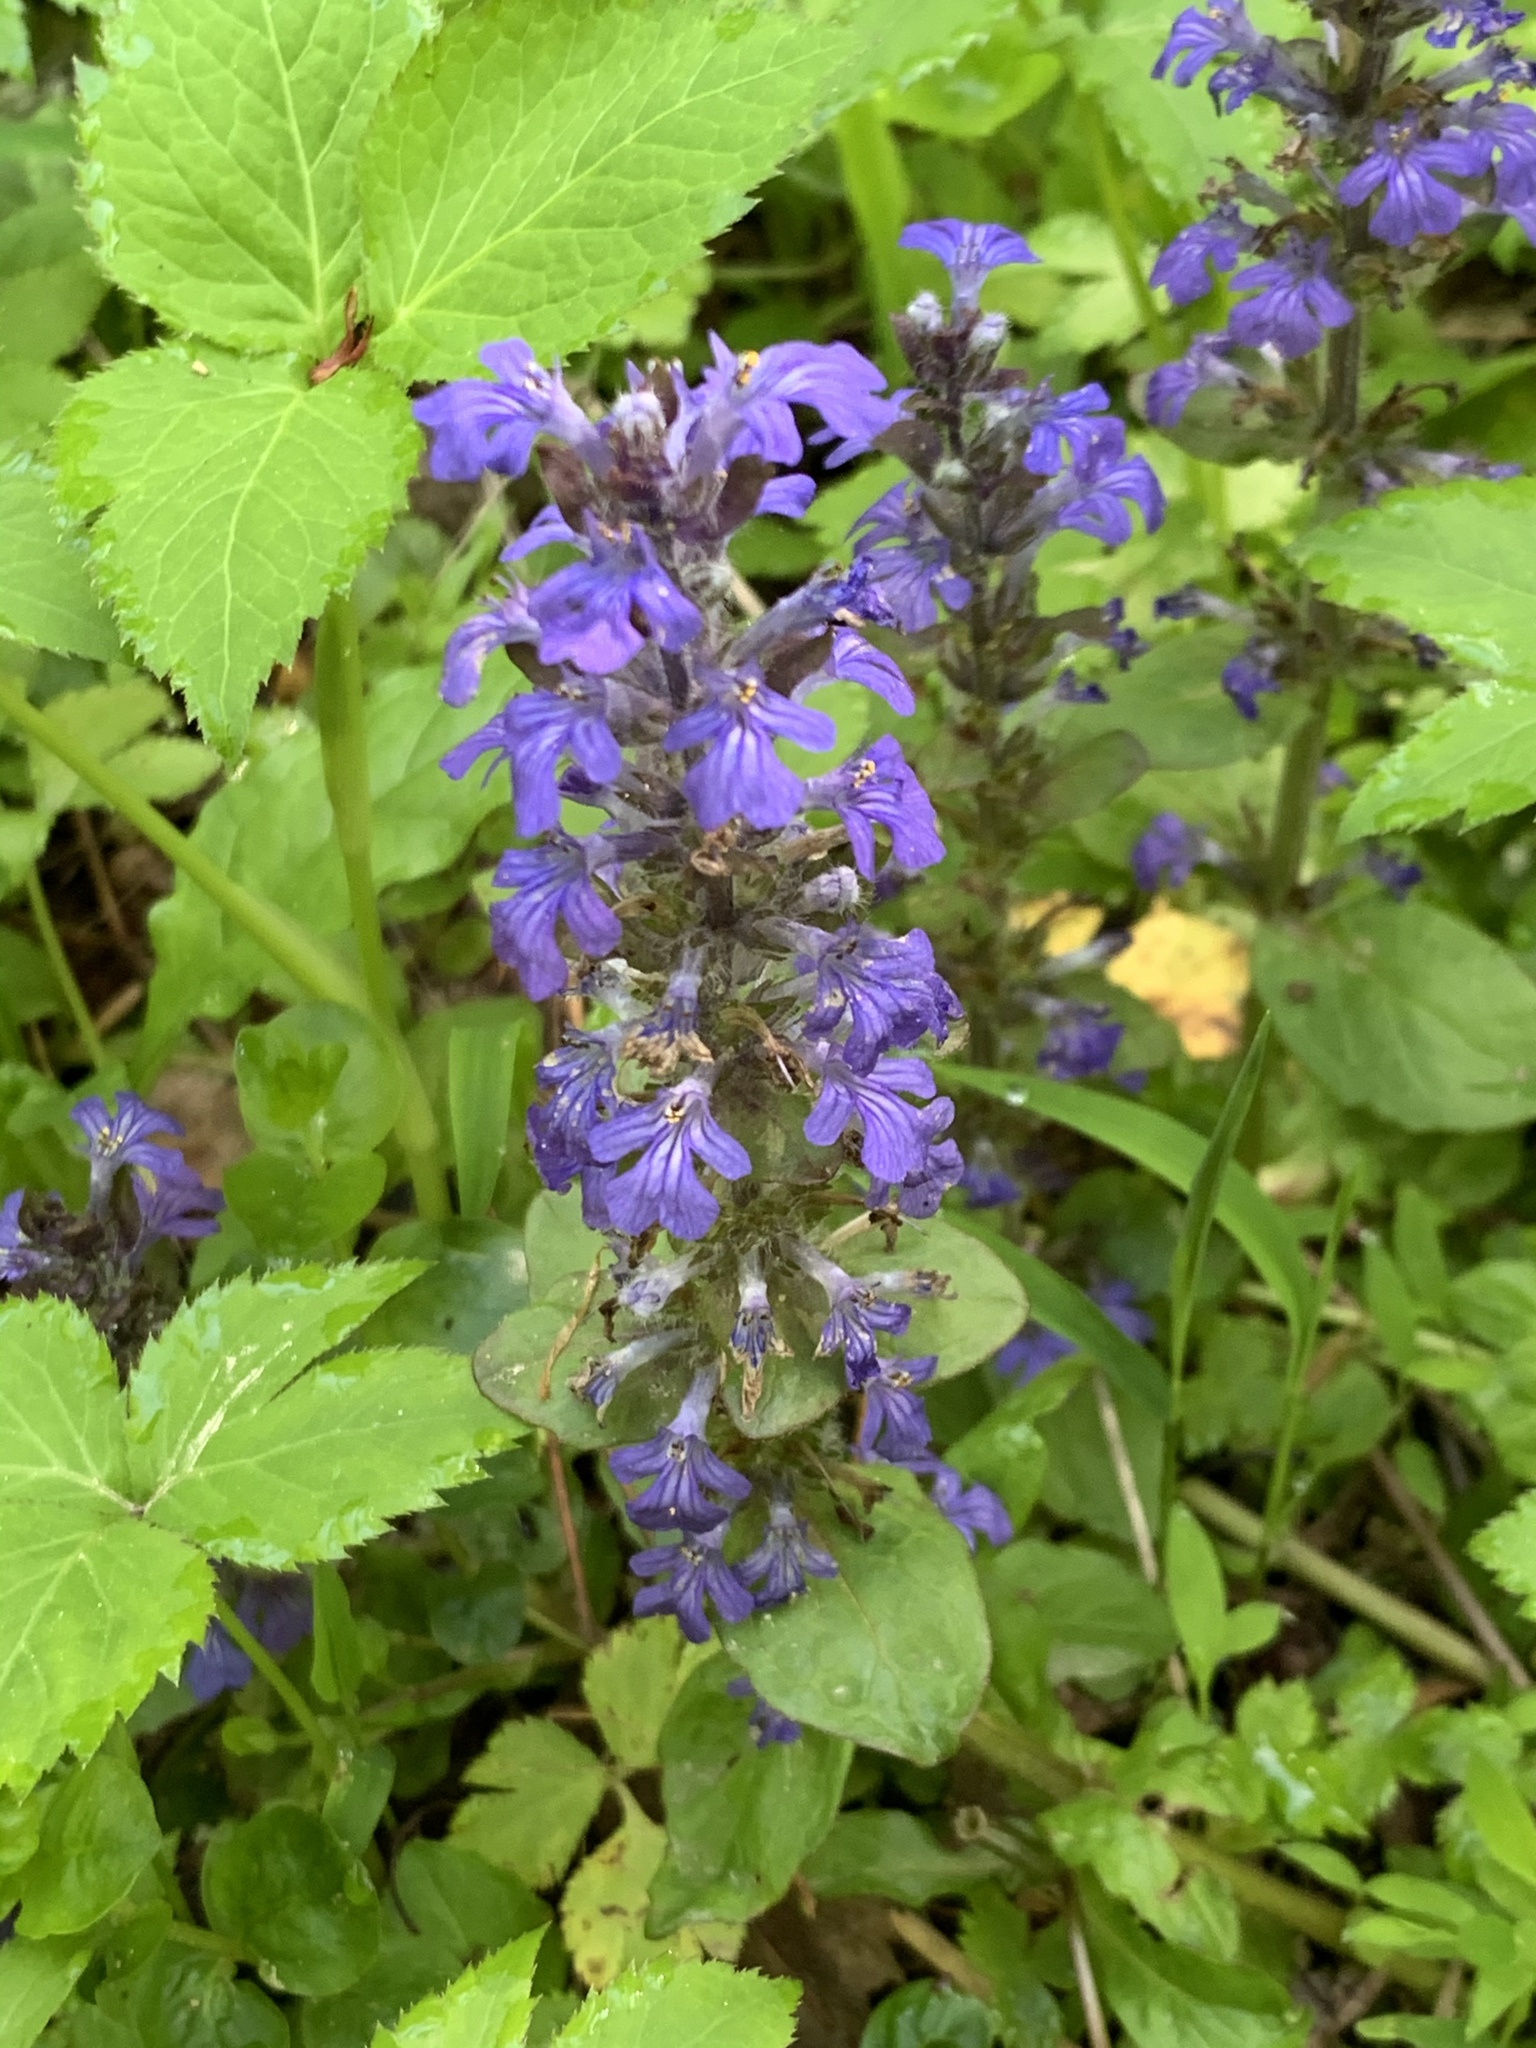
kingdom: Plantae
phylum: Tracheophyta
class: Magnoliopsida
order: Lamiales
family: Lamiaceae
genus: Ajuga
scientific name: Ajuga reptans
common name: Bugle
